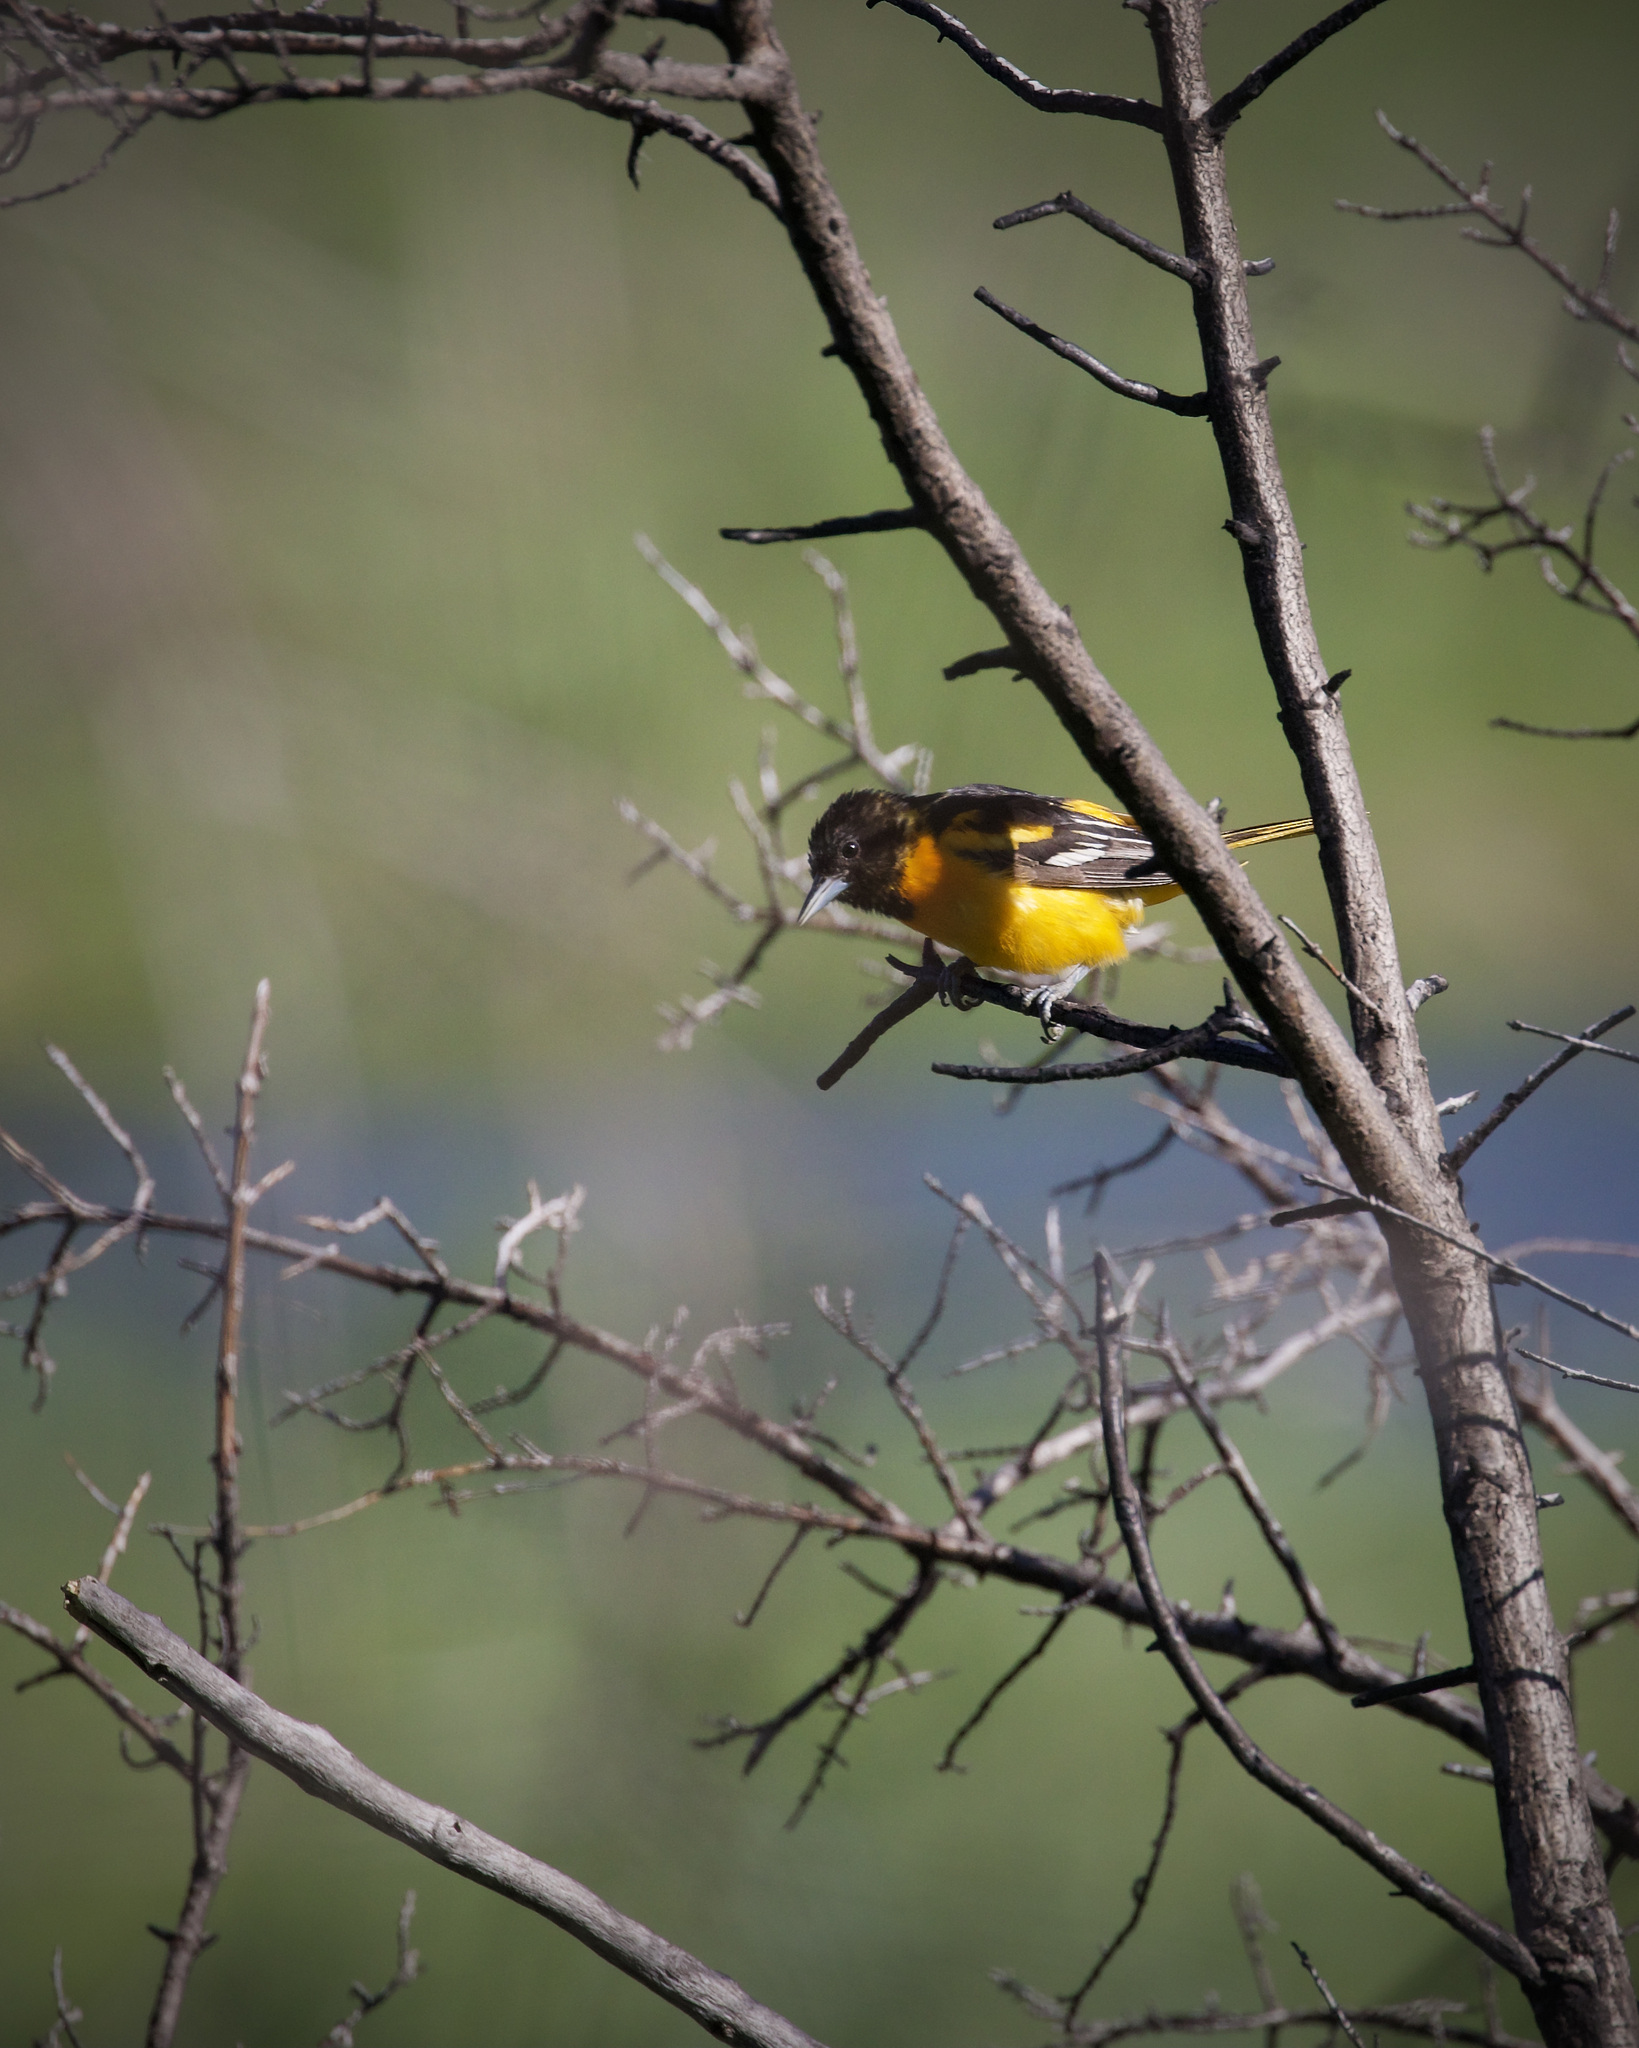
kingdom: Animalia
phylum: Chordata
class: Aves
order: Passeriformes
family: Icteridae
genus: Icterus
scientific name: Icterus galbula
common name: Baltimore oriole
